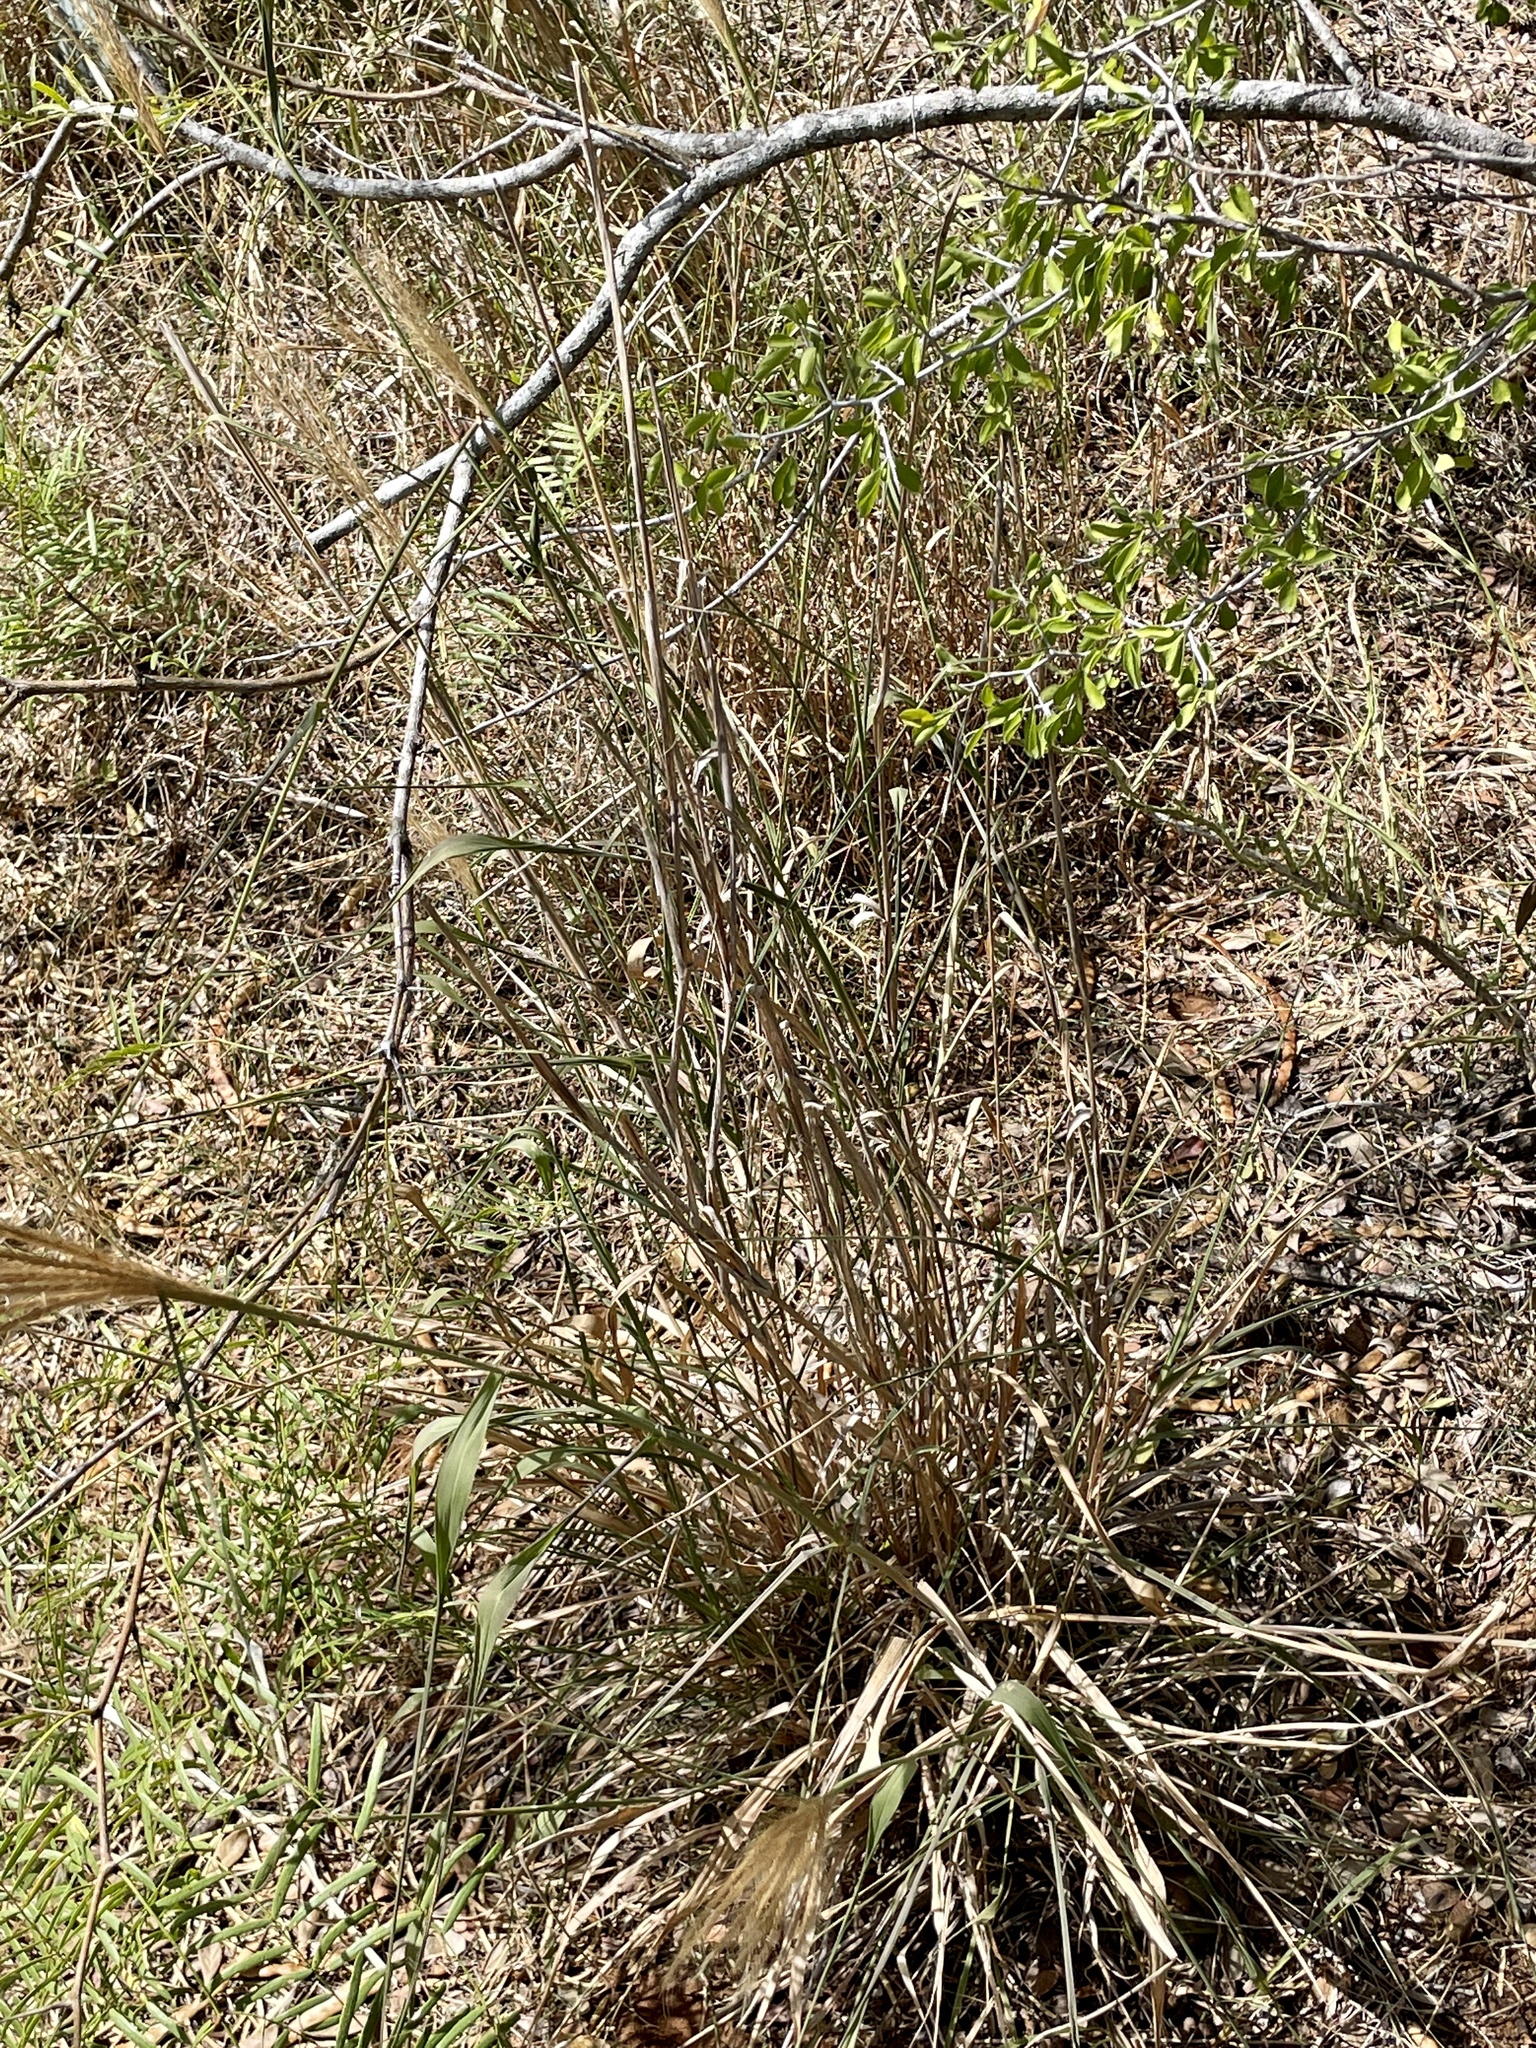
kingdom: Plantae
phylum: Tracheophyta
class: Liliopsida
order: Poales
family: Poaceae
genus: Leptochloa
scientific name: Leptochloa pluriflora
